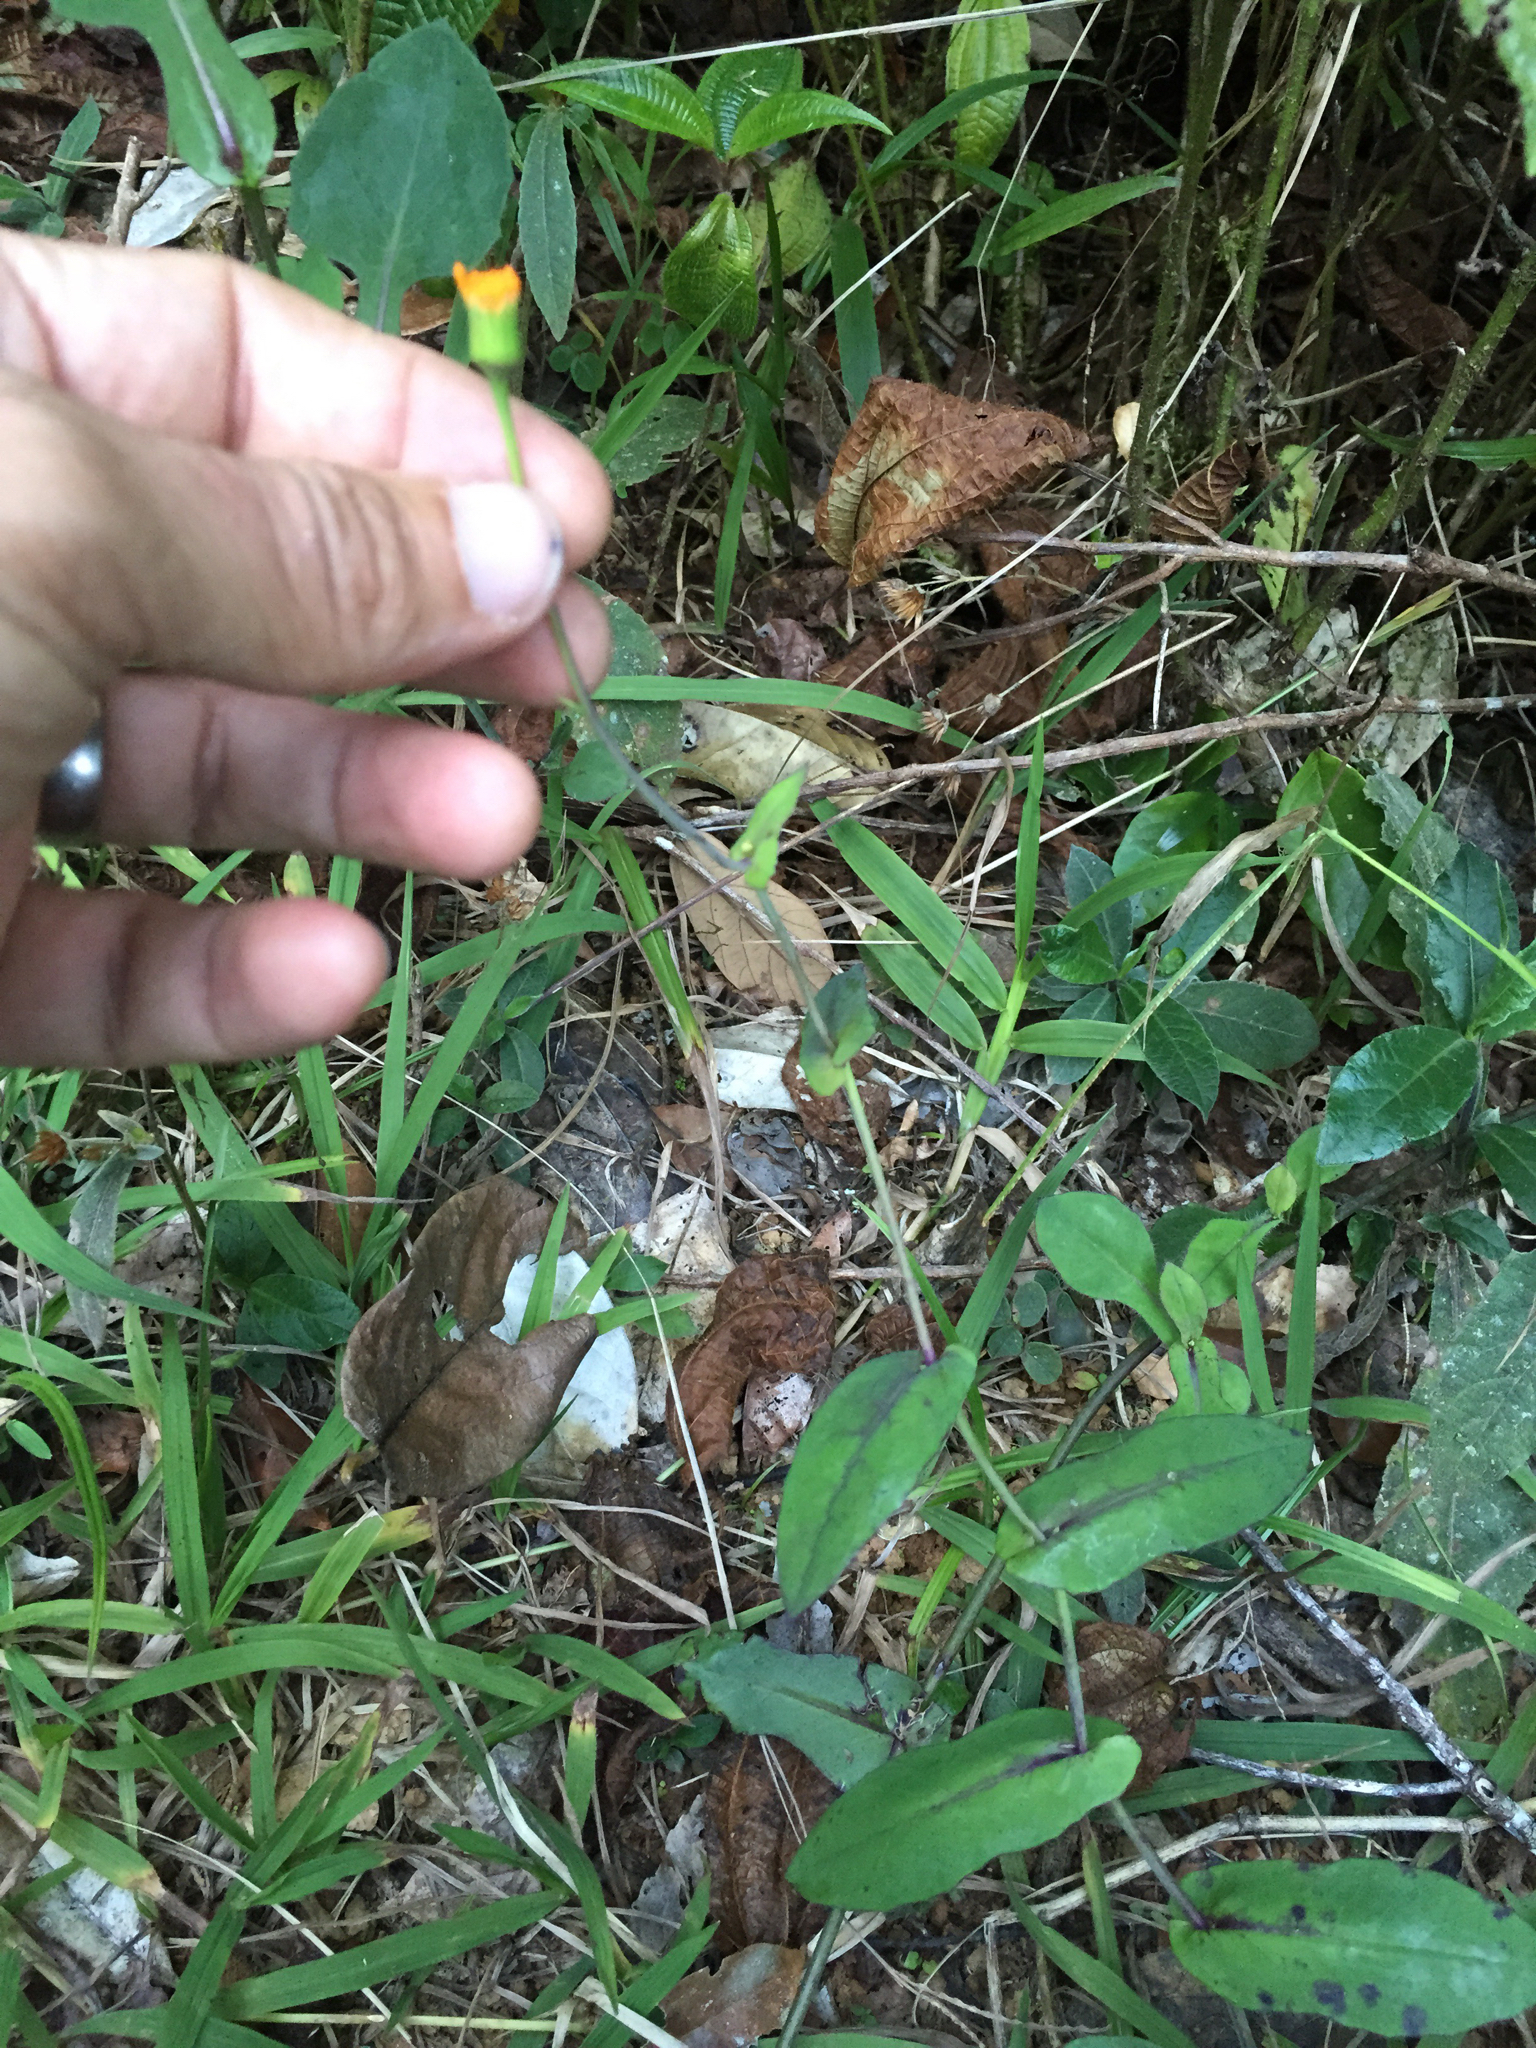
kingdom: Plantae
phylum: Tracheophyta
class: Magnoliopsida
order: Asterales
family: Asteraceae
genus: Emilia
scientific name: Emilia humifusa
